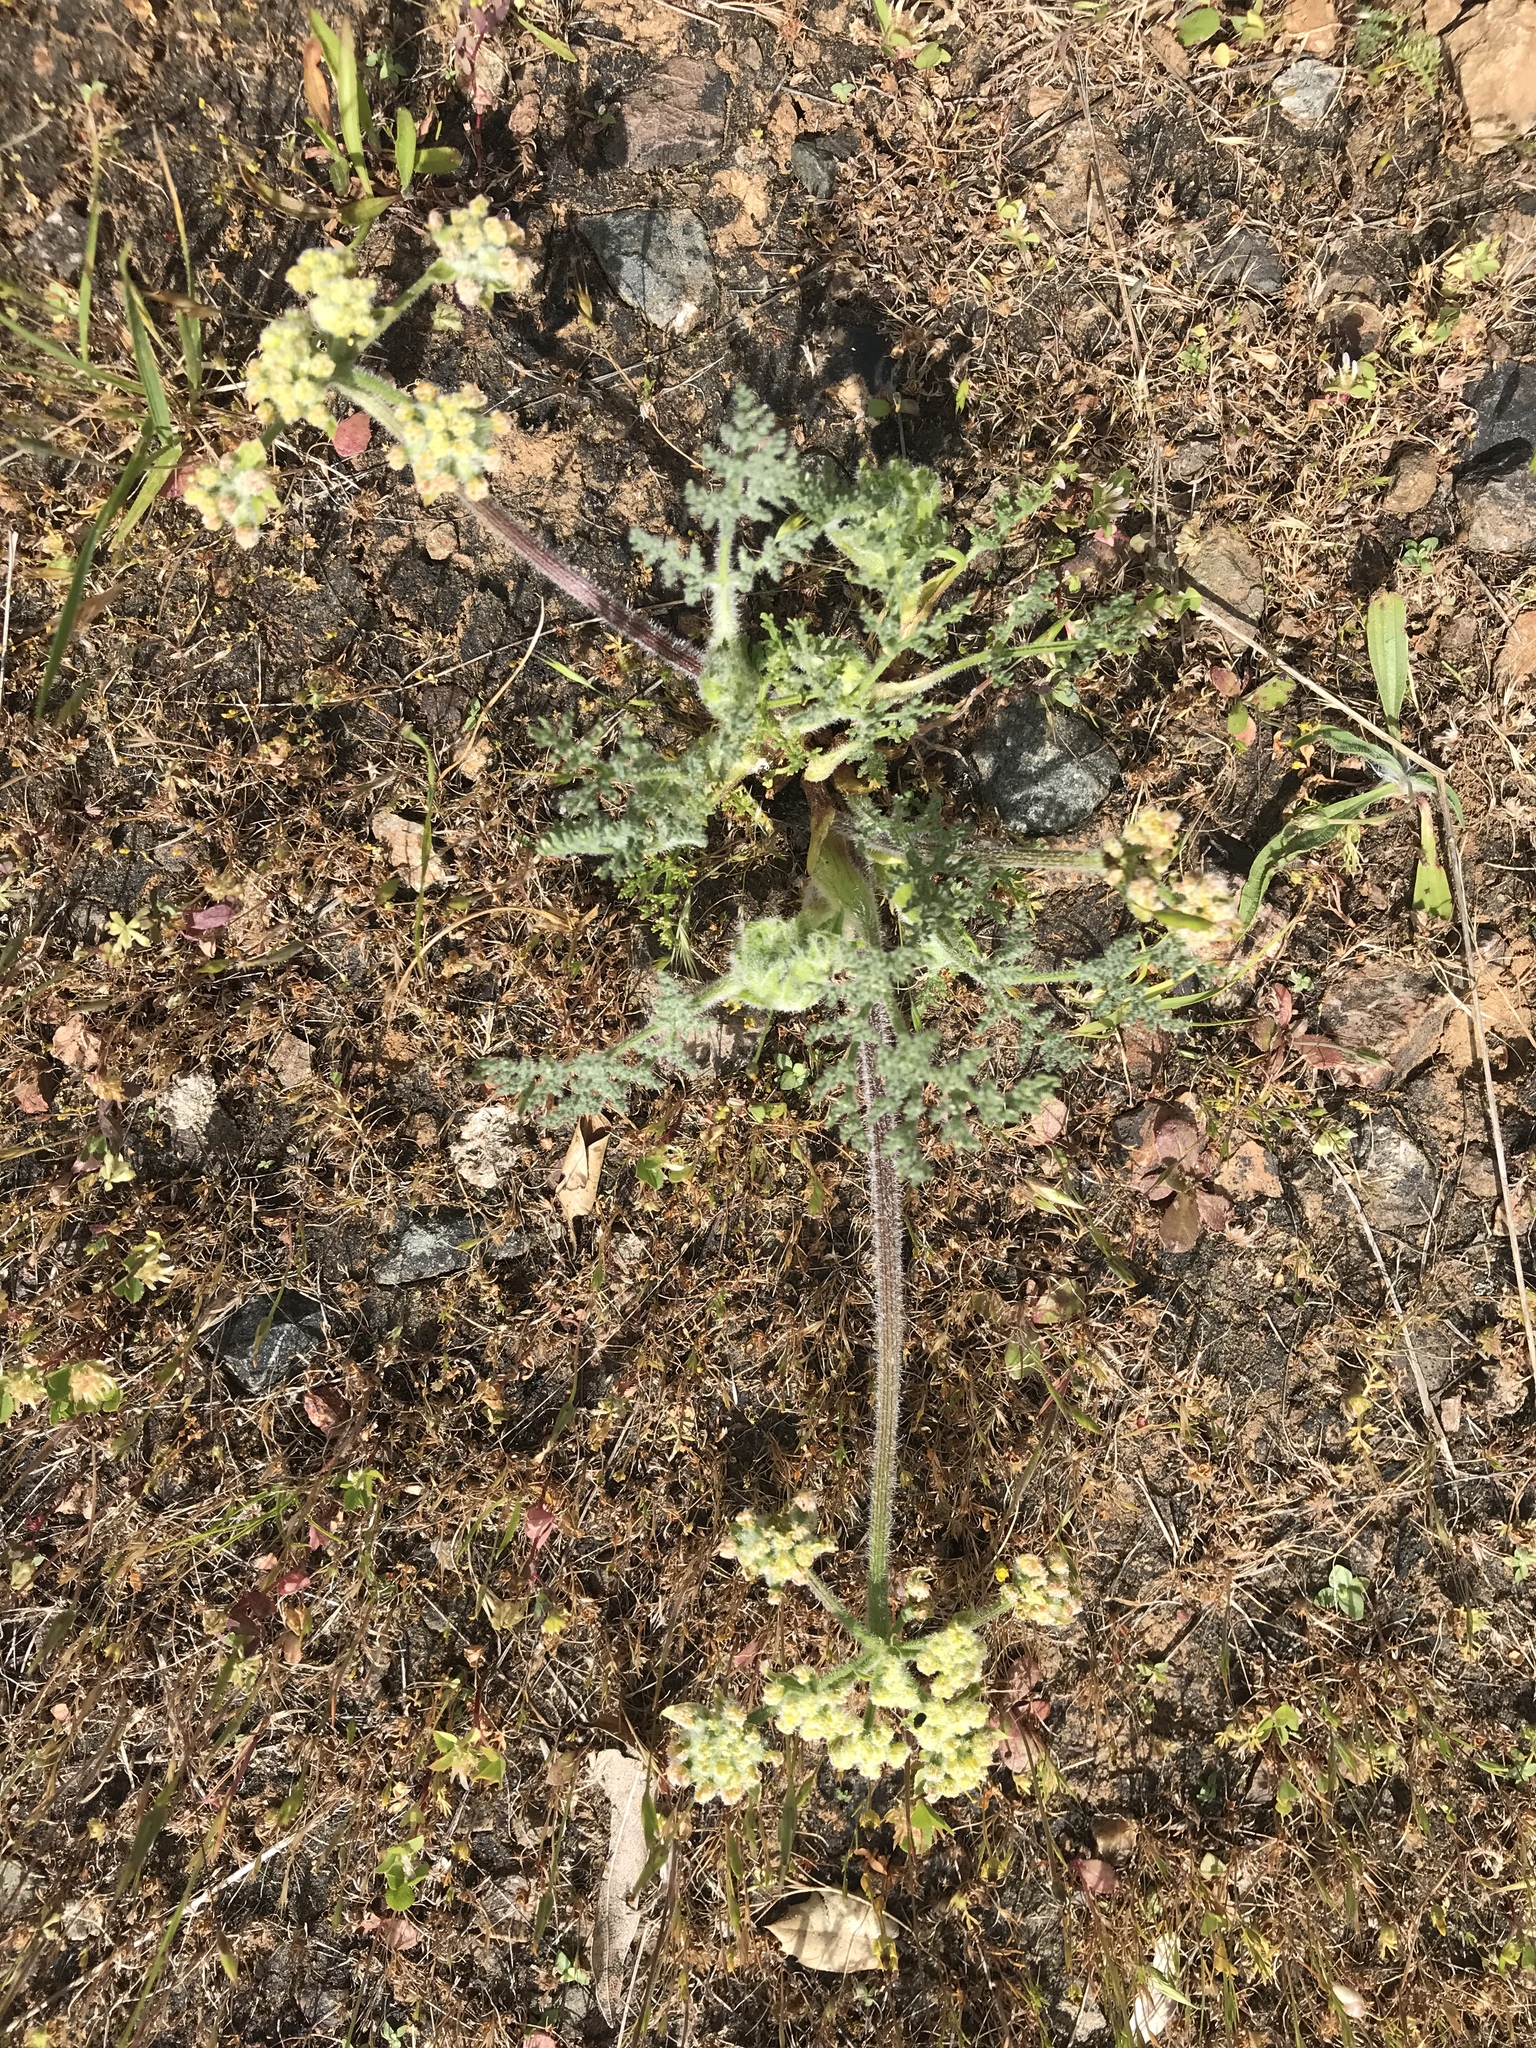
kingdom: Plantae
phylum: Tracheophyta
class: Magnoliopsida
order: Apiales
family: Apiaceae
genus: Lomatium
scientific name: Lomatium dasycarpum
